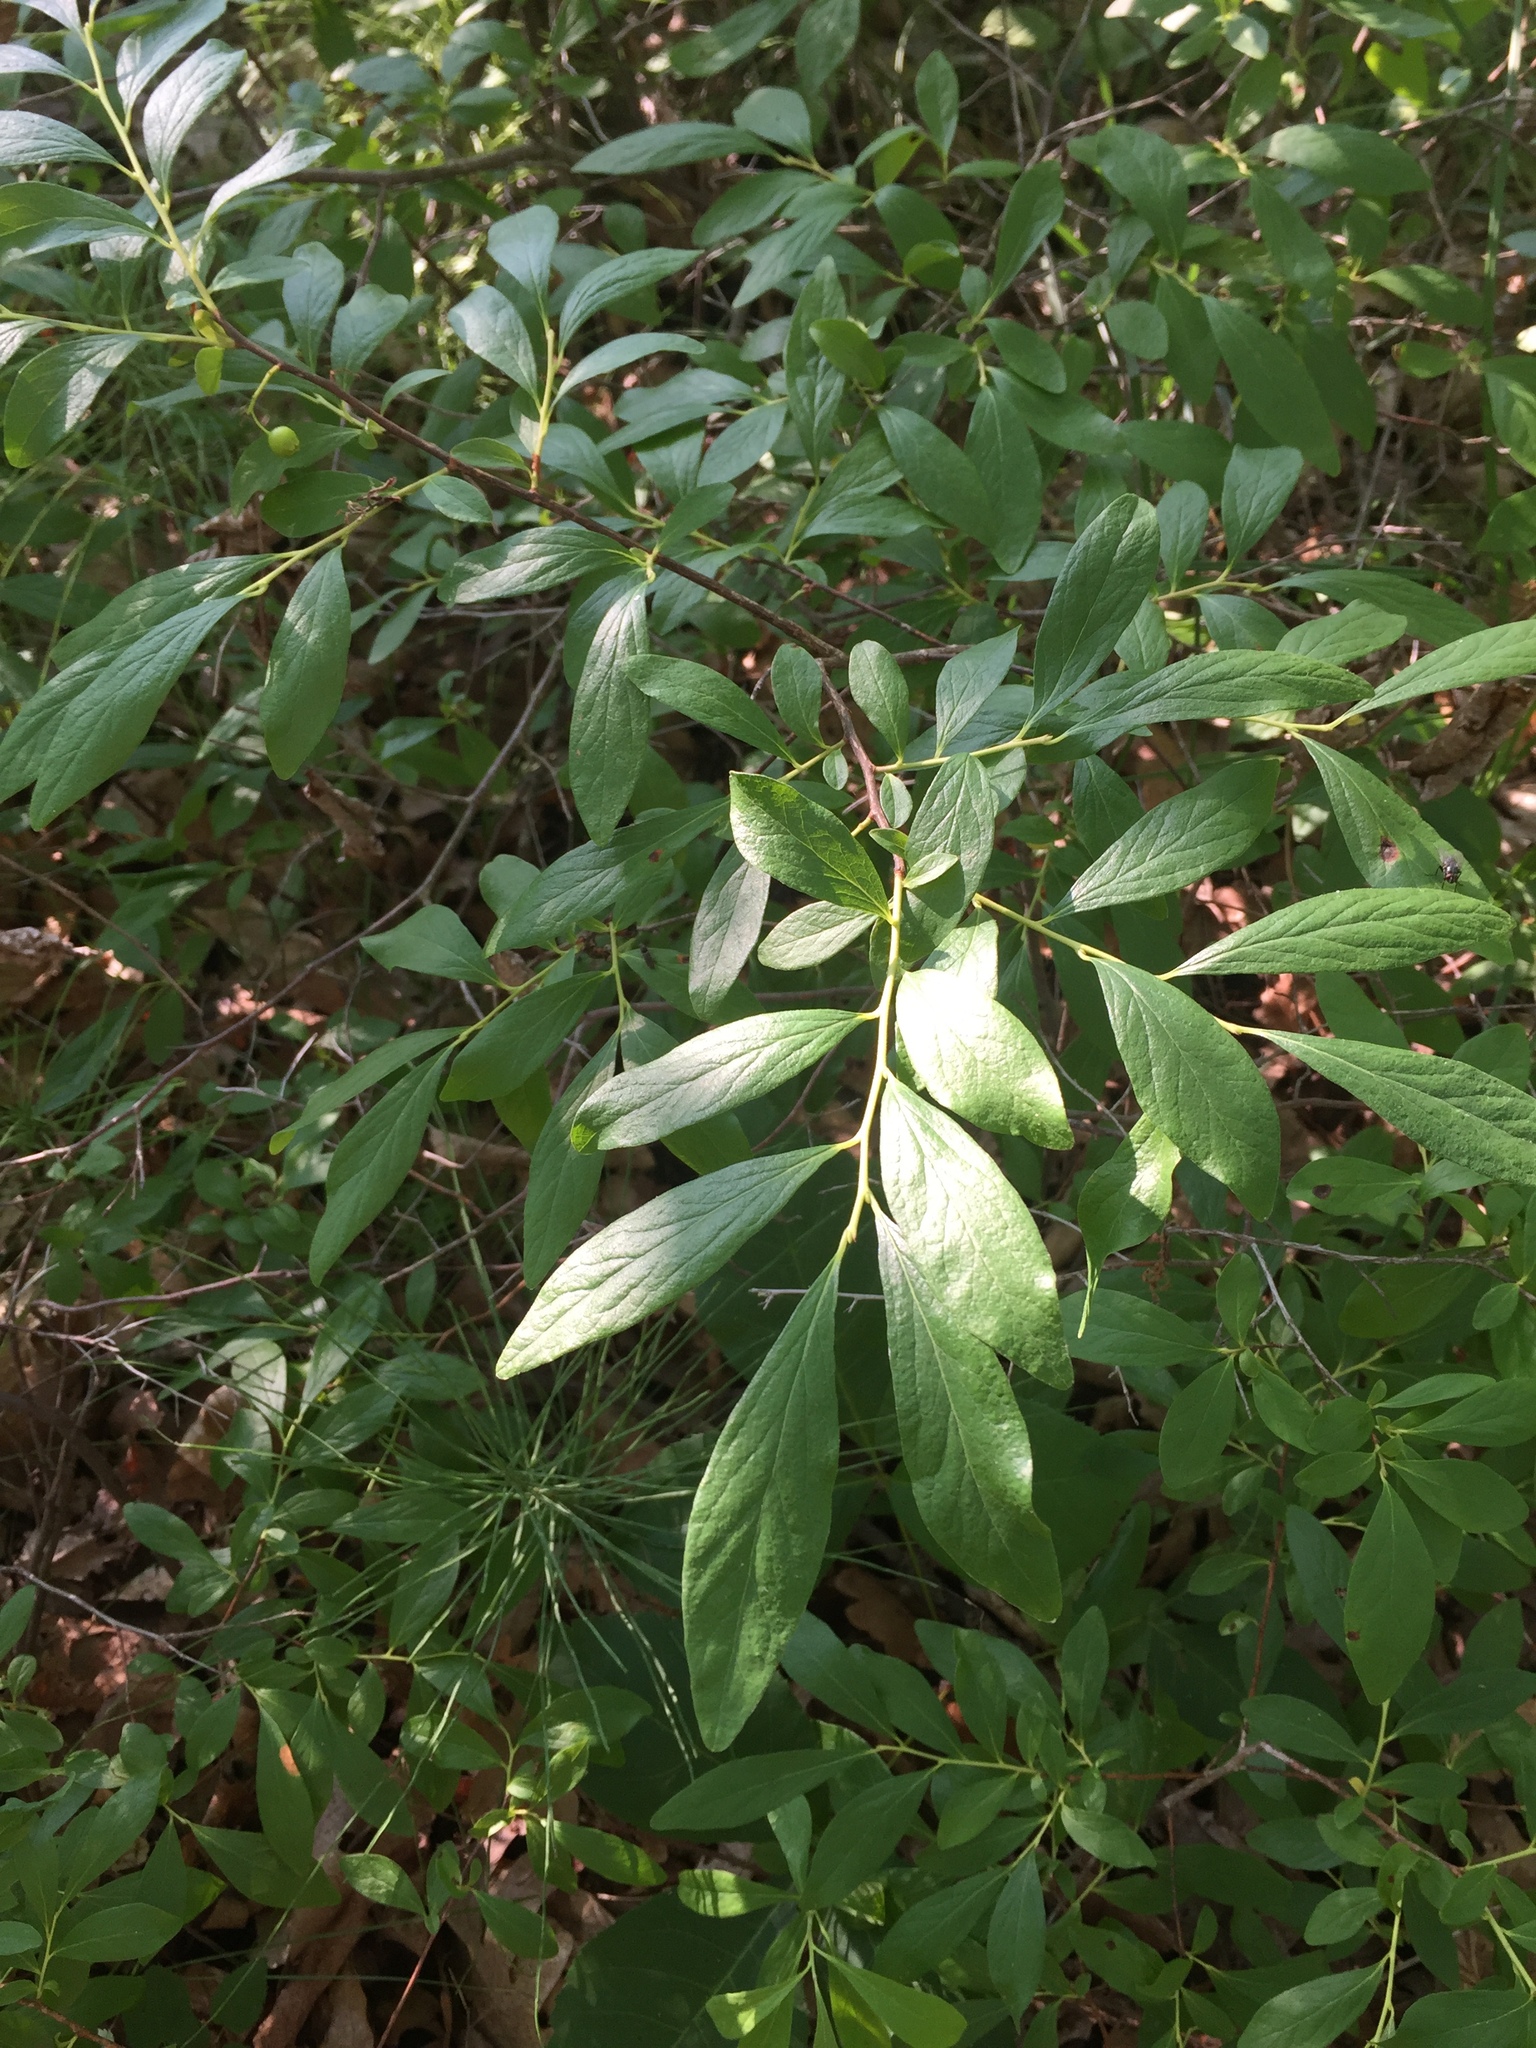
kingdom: Plantae
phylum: Tracheophyta
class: Magnoliopsida
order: Ericales
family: Ericaceae
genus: Gaylussacia
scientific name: Gaylussacia baccata
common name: Black huckleberry
